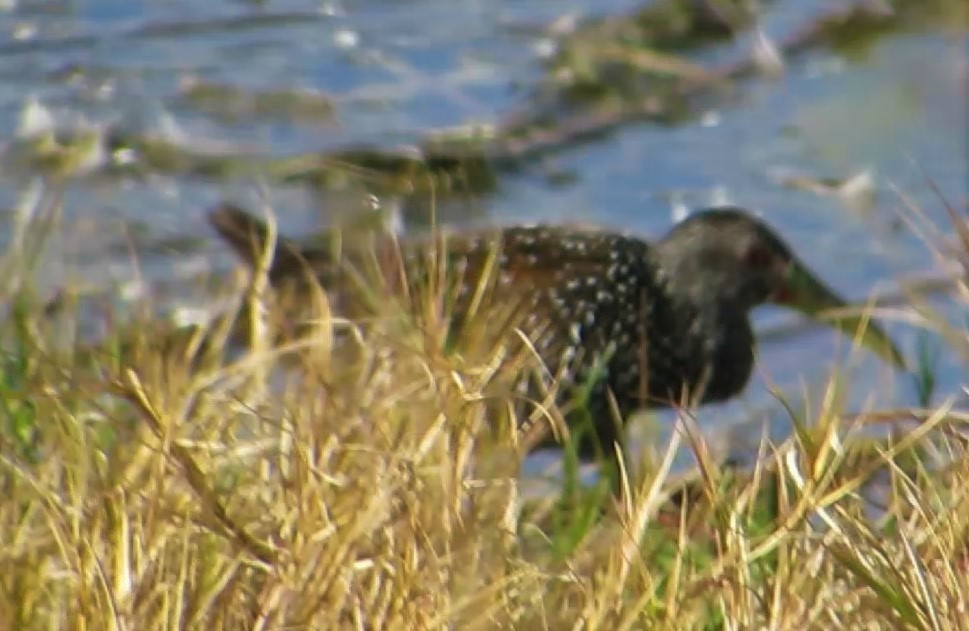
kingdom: Animalia
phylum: Chordata
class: Aves
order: Gruiformes
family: Rallidae
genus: Pardirallus
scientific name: Pardirallus maculatus
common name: Spotted rail
